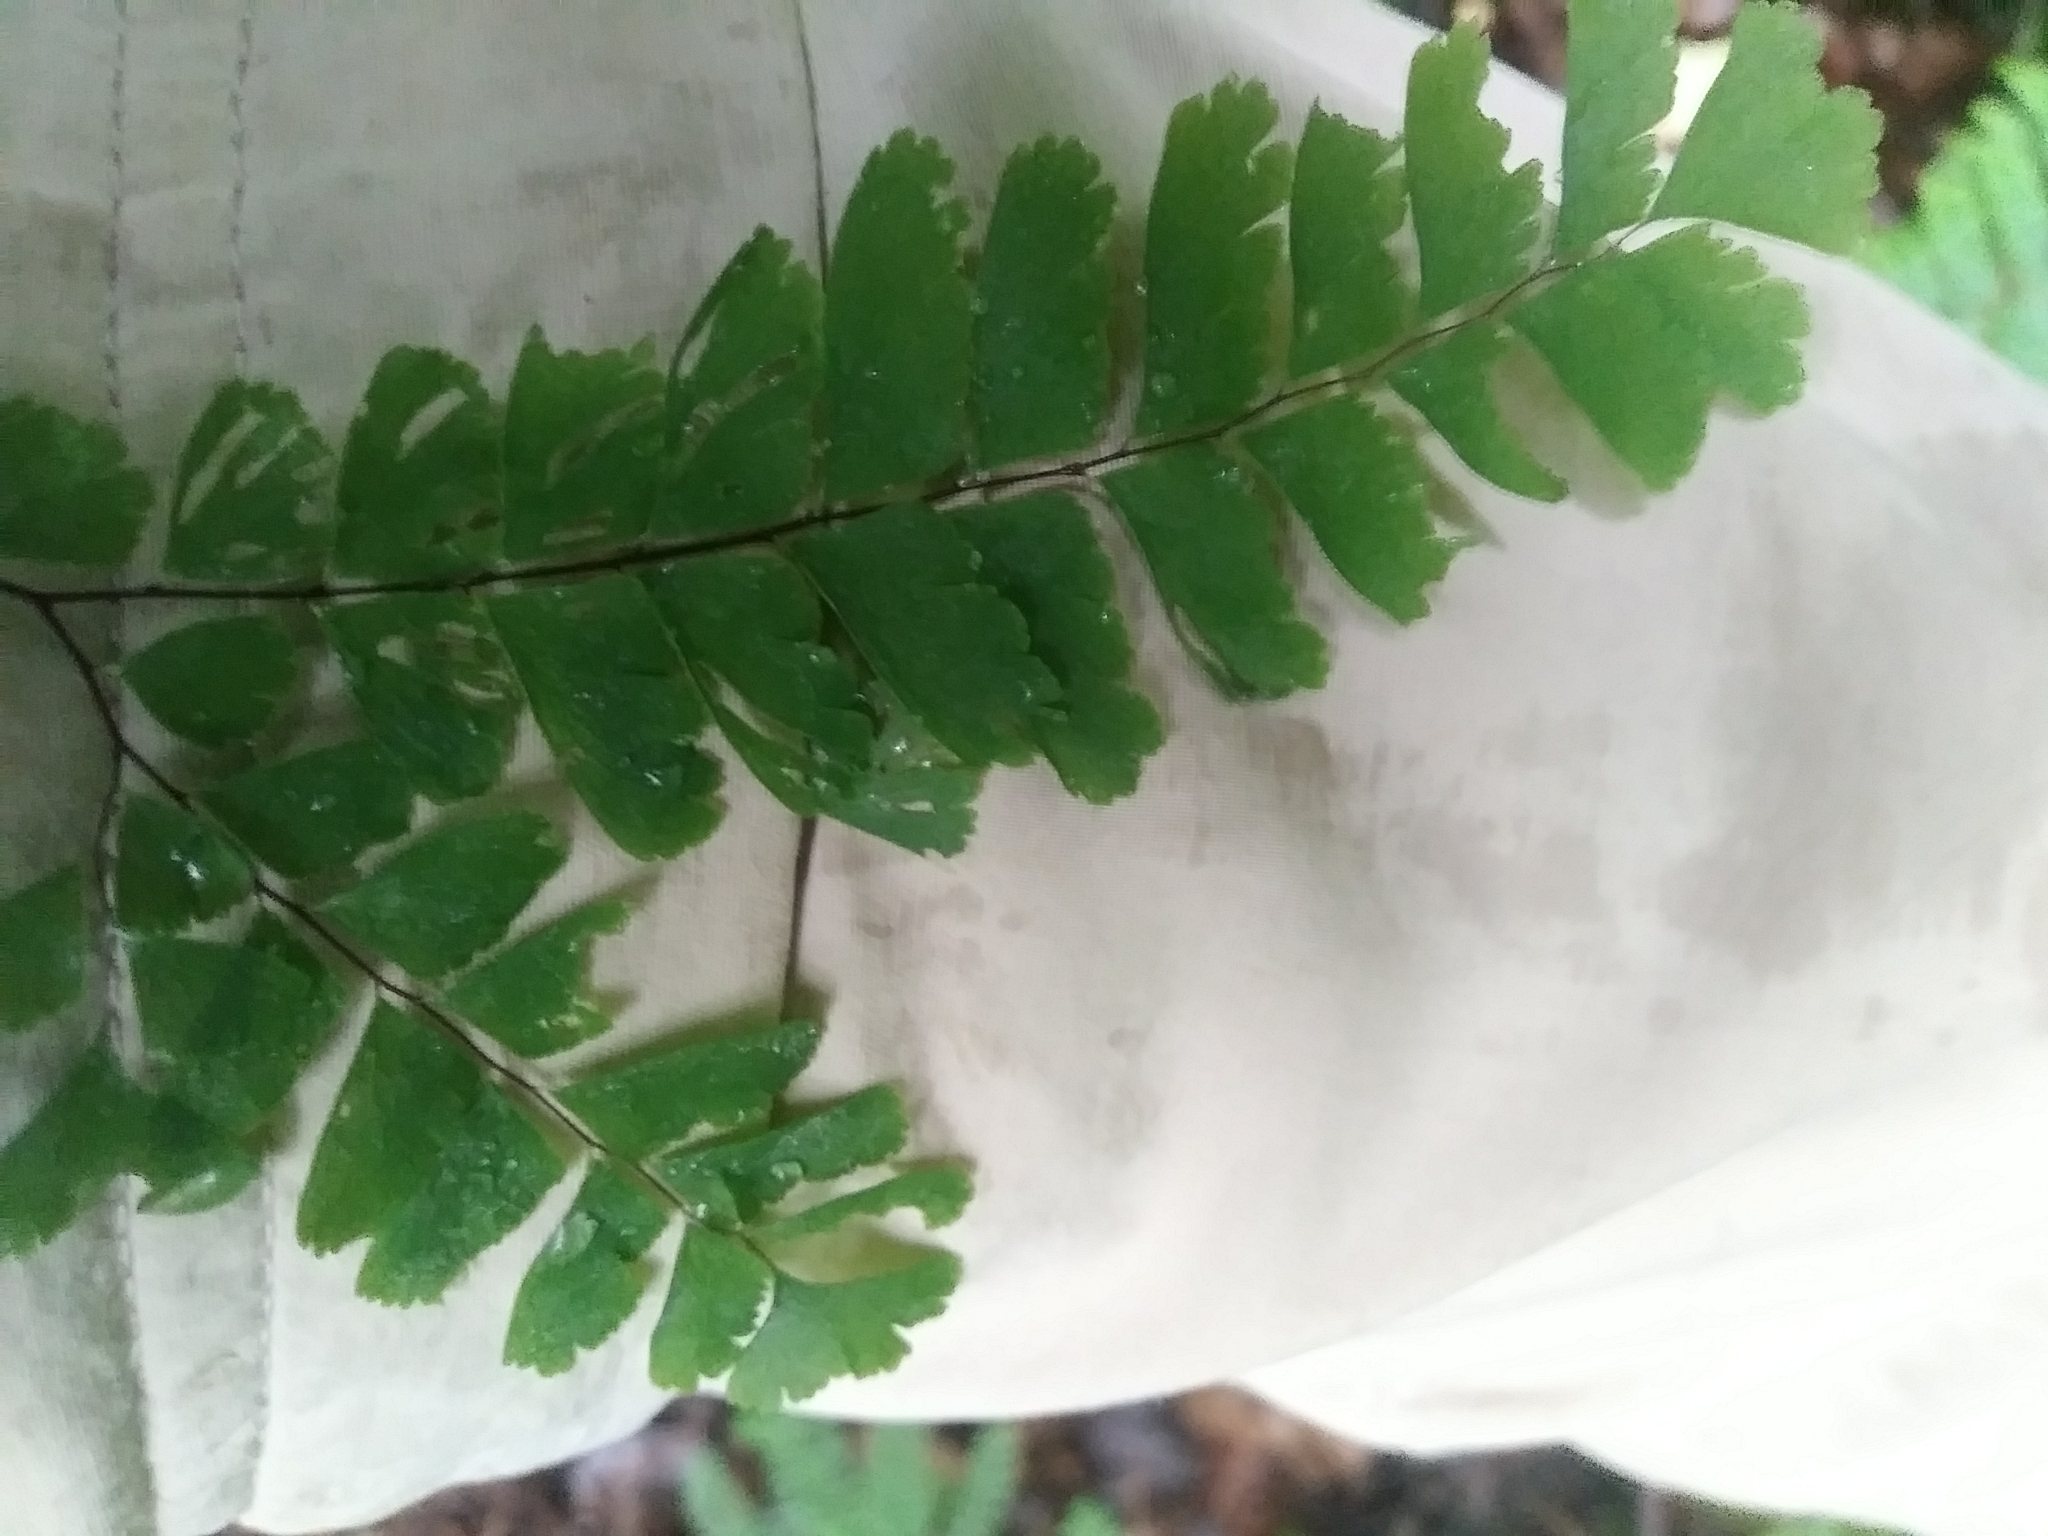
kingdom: Plantae
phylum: Tracheophyta
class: Polypodiopsida
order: Polypodiales
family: Pteridaceae
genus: Adiantum
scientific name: Adiantum pedatum
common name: Five-finger fern
